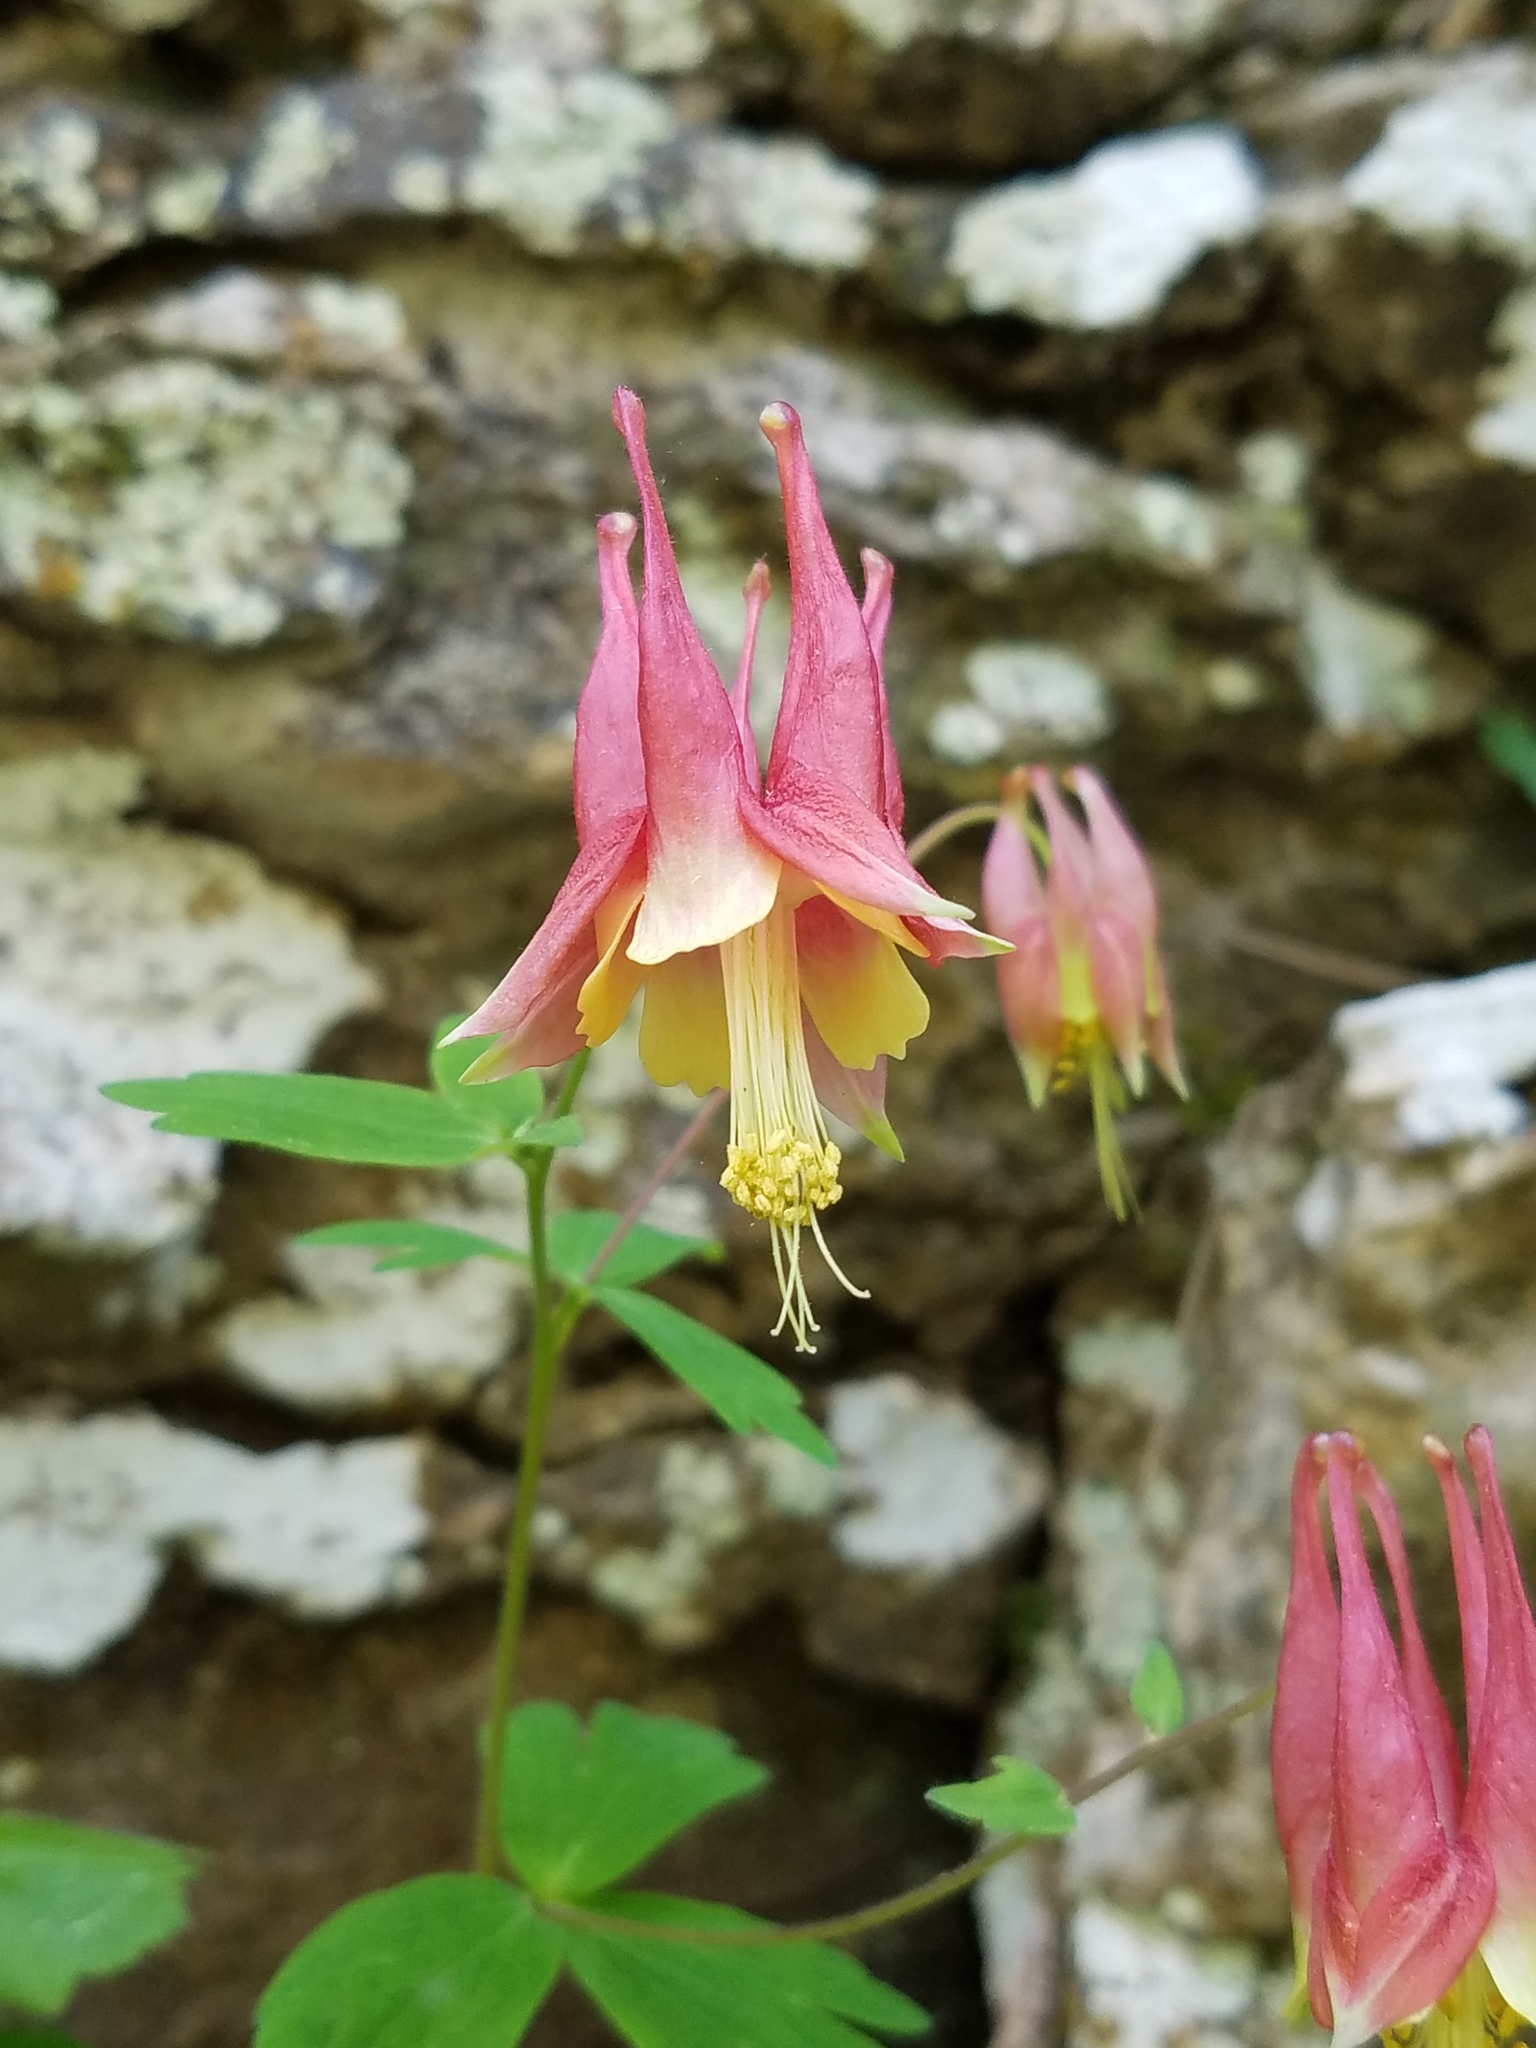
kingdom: Plantae
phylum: Tracheophyta
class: Magnoliopsida
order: Ranunculales
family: Ranunculaceae
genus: Aquilegia
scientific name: Aquilegia canadensis
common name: American columbine
